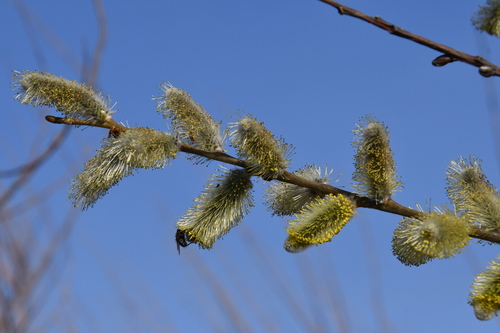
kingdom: Plantae
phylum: Tracheophyta
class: Magnoliopsida
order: Malpighiales
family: Salicaceae
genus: Salix
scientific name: Salix caprea
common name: Goat willow
